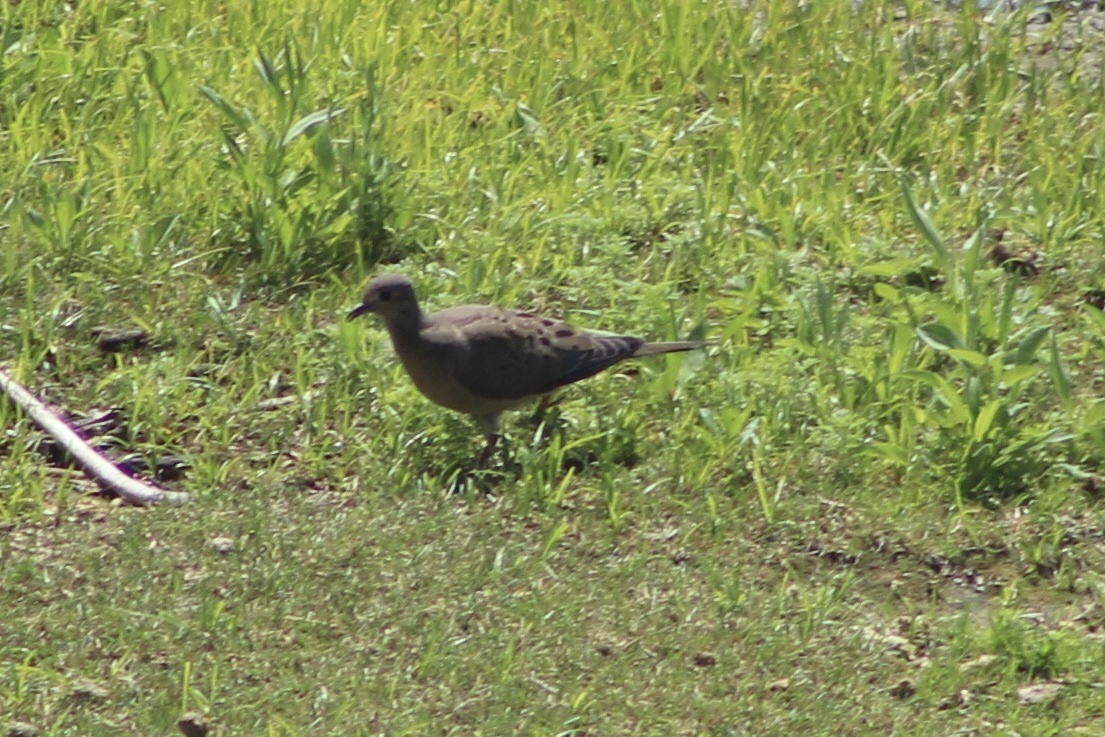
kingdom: Animalia
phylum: Chordata
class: Aves
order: Columbiformes
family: Columbidae
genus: Zenaida
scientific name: Zenaida macroura
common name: Mourning dove
